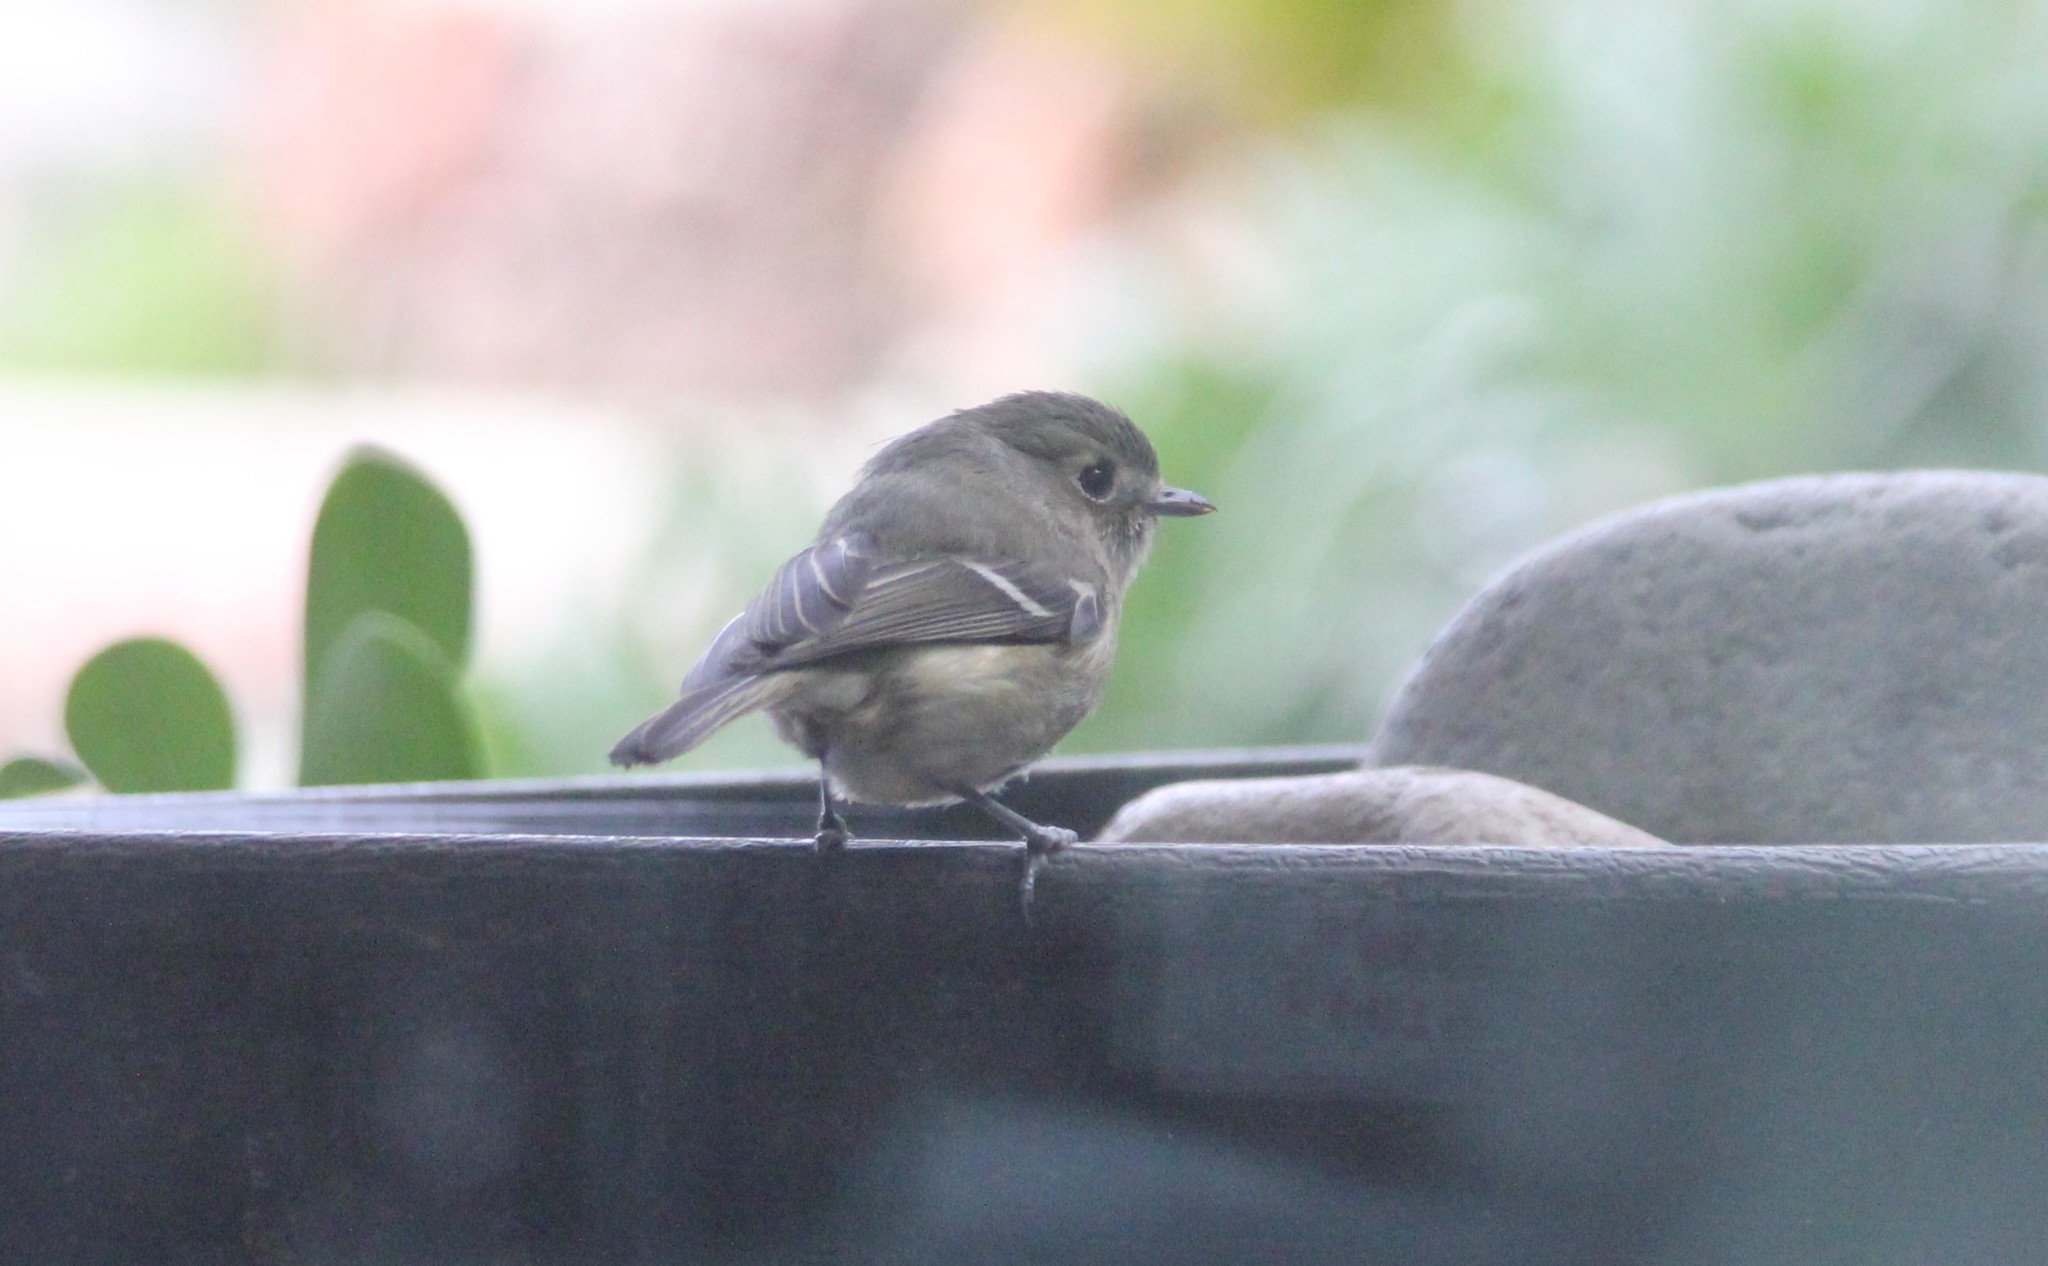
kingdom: Animalia
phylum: Chordata
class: Aves
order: Passeriformes
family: Vireonidae
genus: Vireo
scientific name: Vireo huttoni
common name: Hutton's vireo
